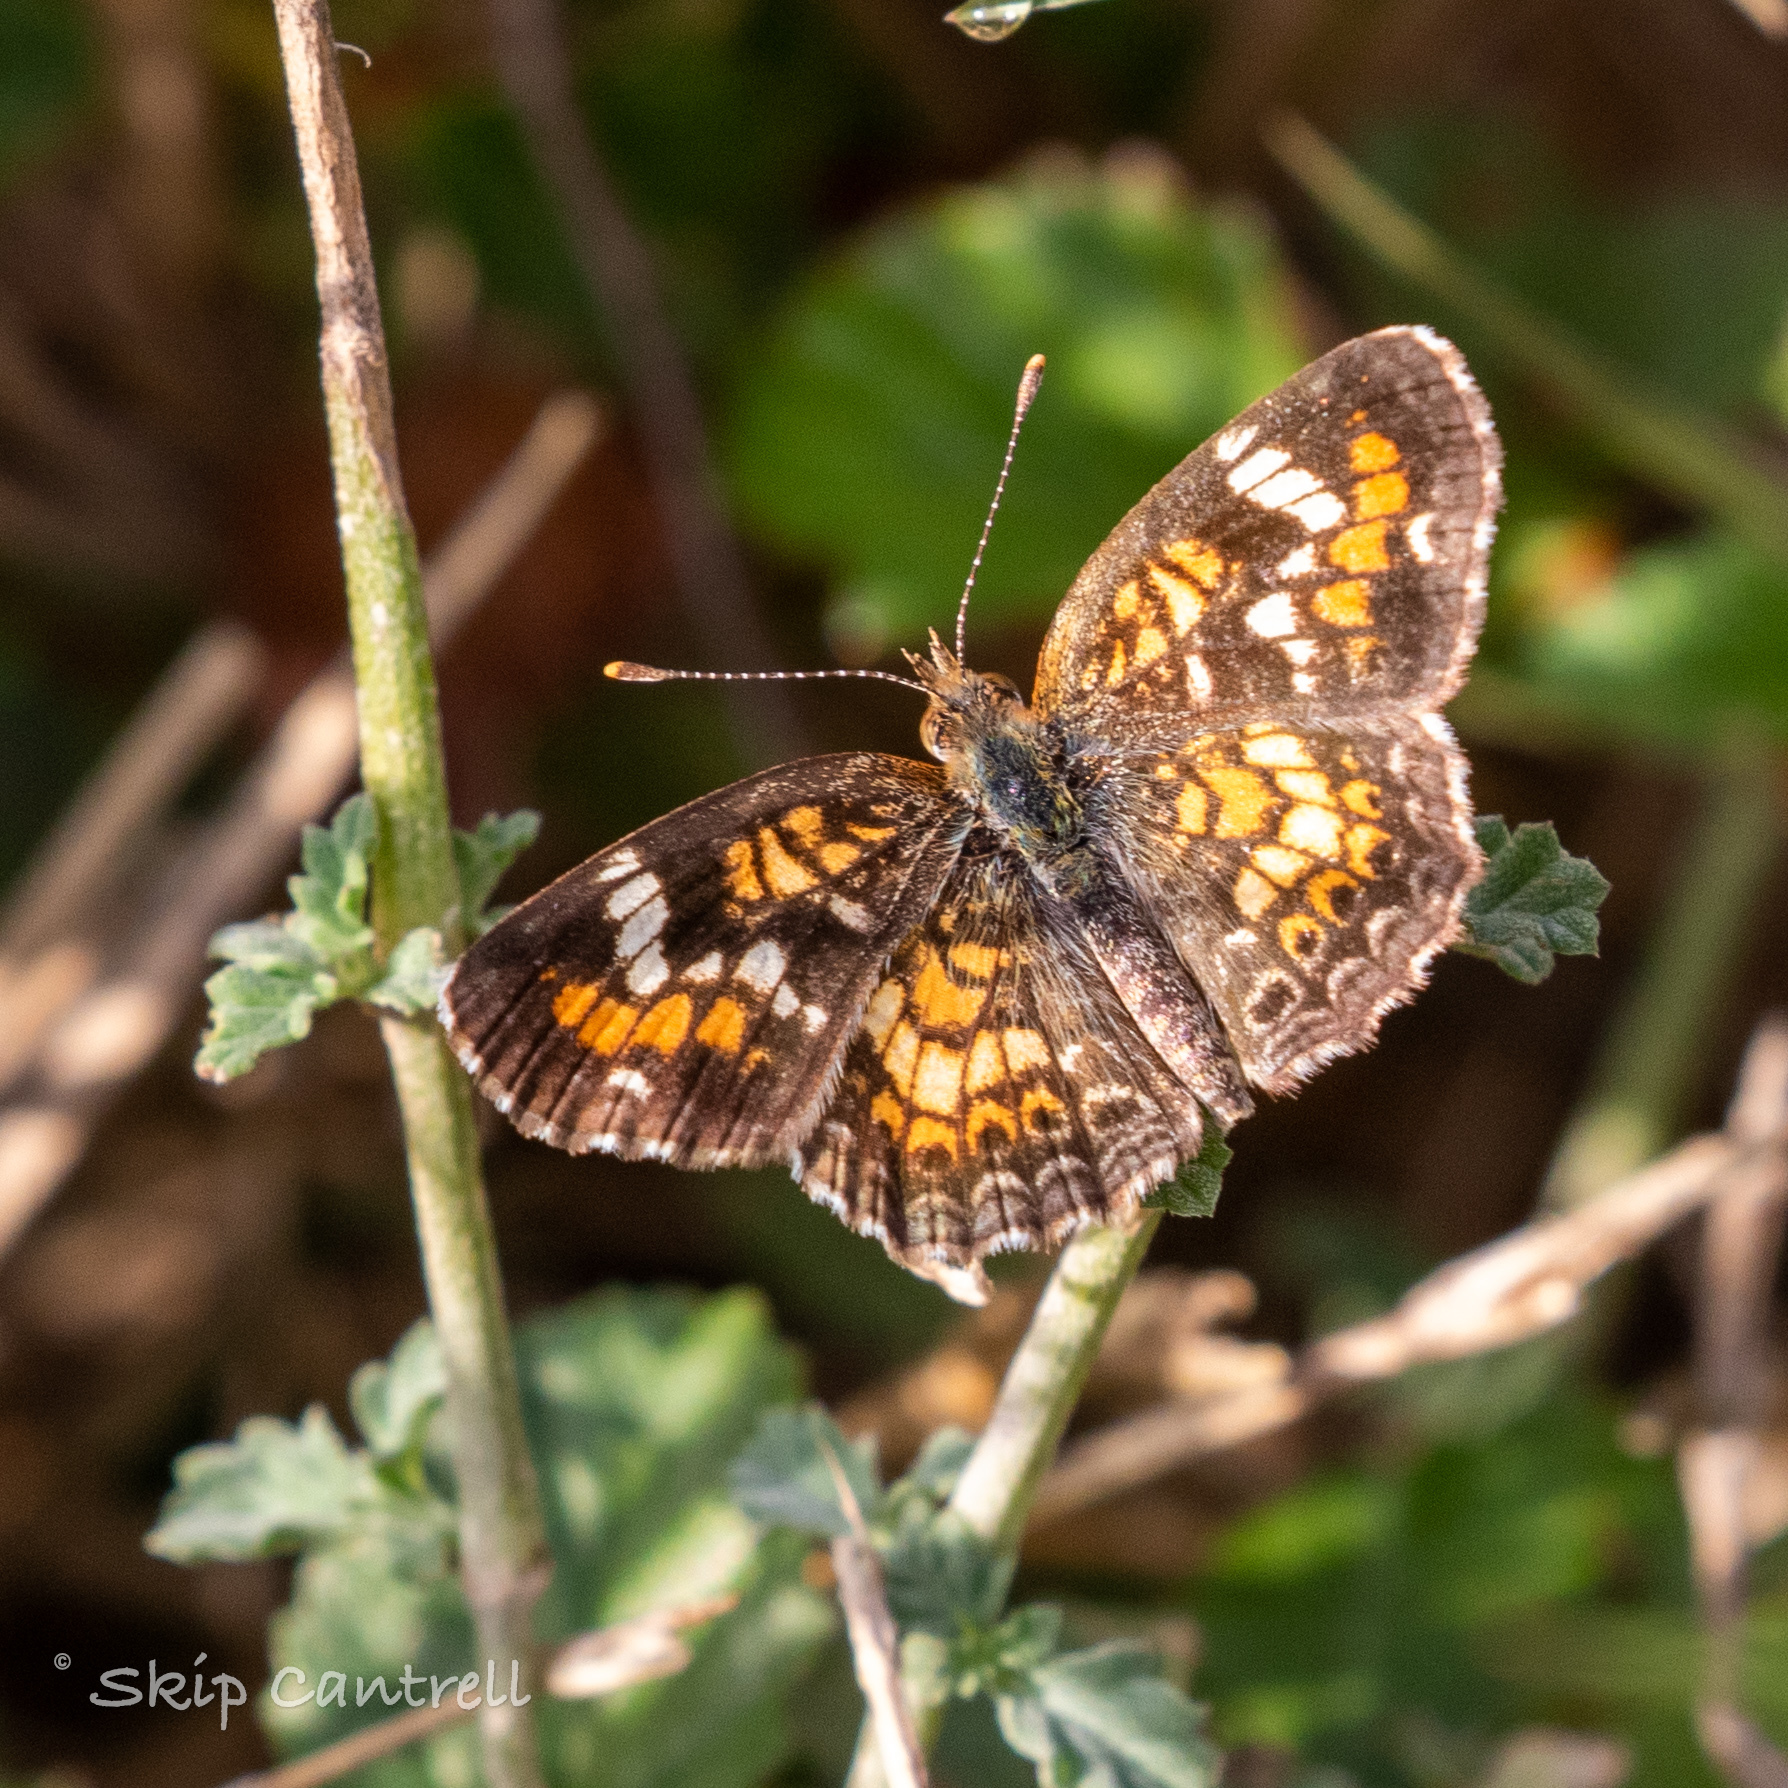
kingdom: Animalia
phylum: Arthropoda
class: Insecta
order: Lepidoptera
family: Nymphalidae
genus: Phyciodes
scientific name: Phyciodes phaon
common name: Phaon crescent
